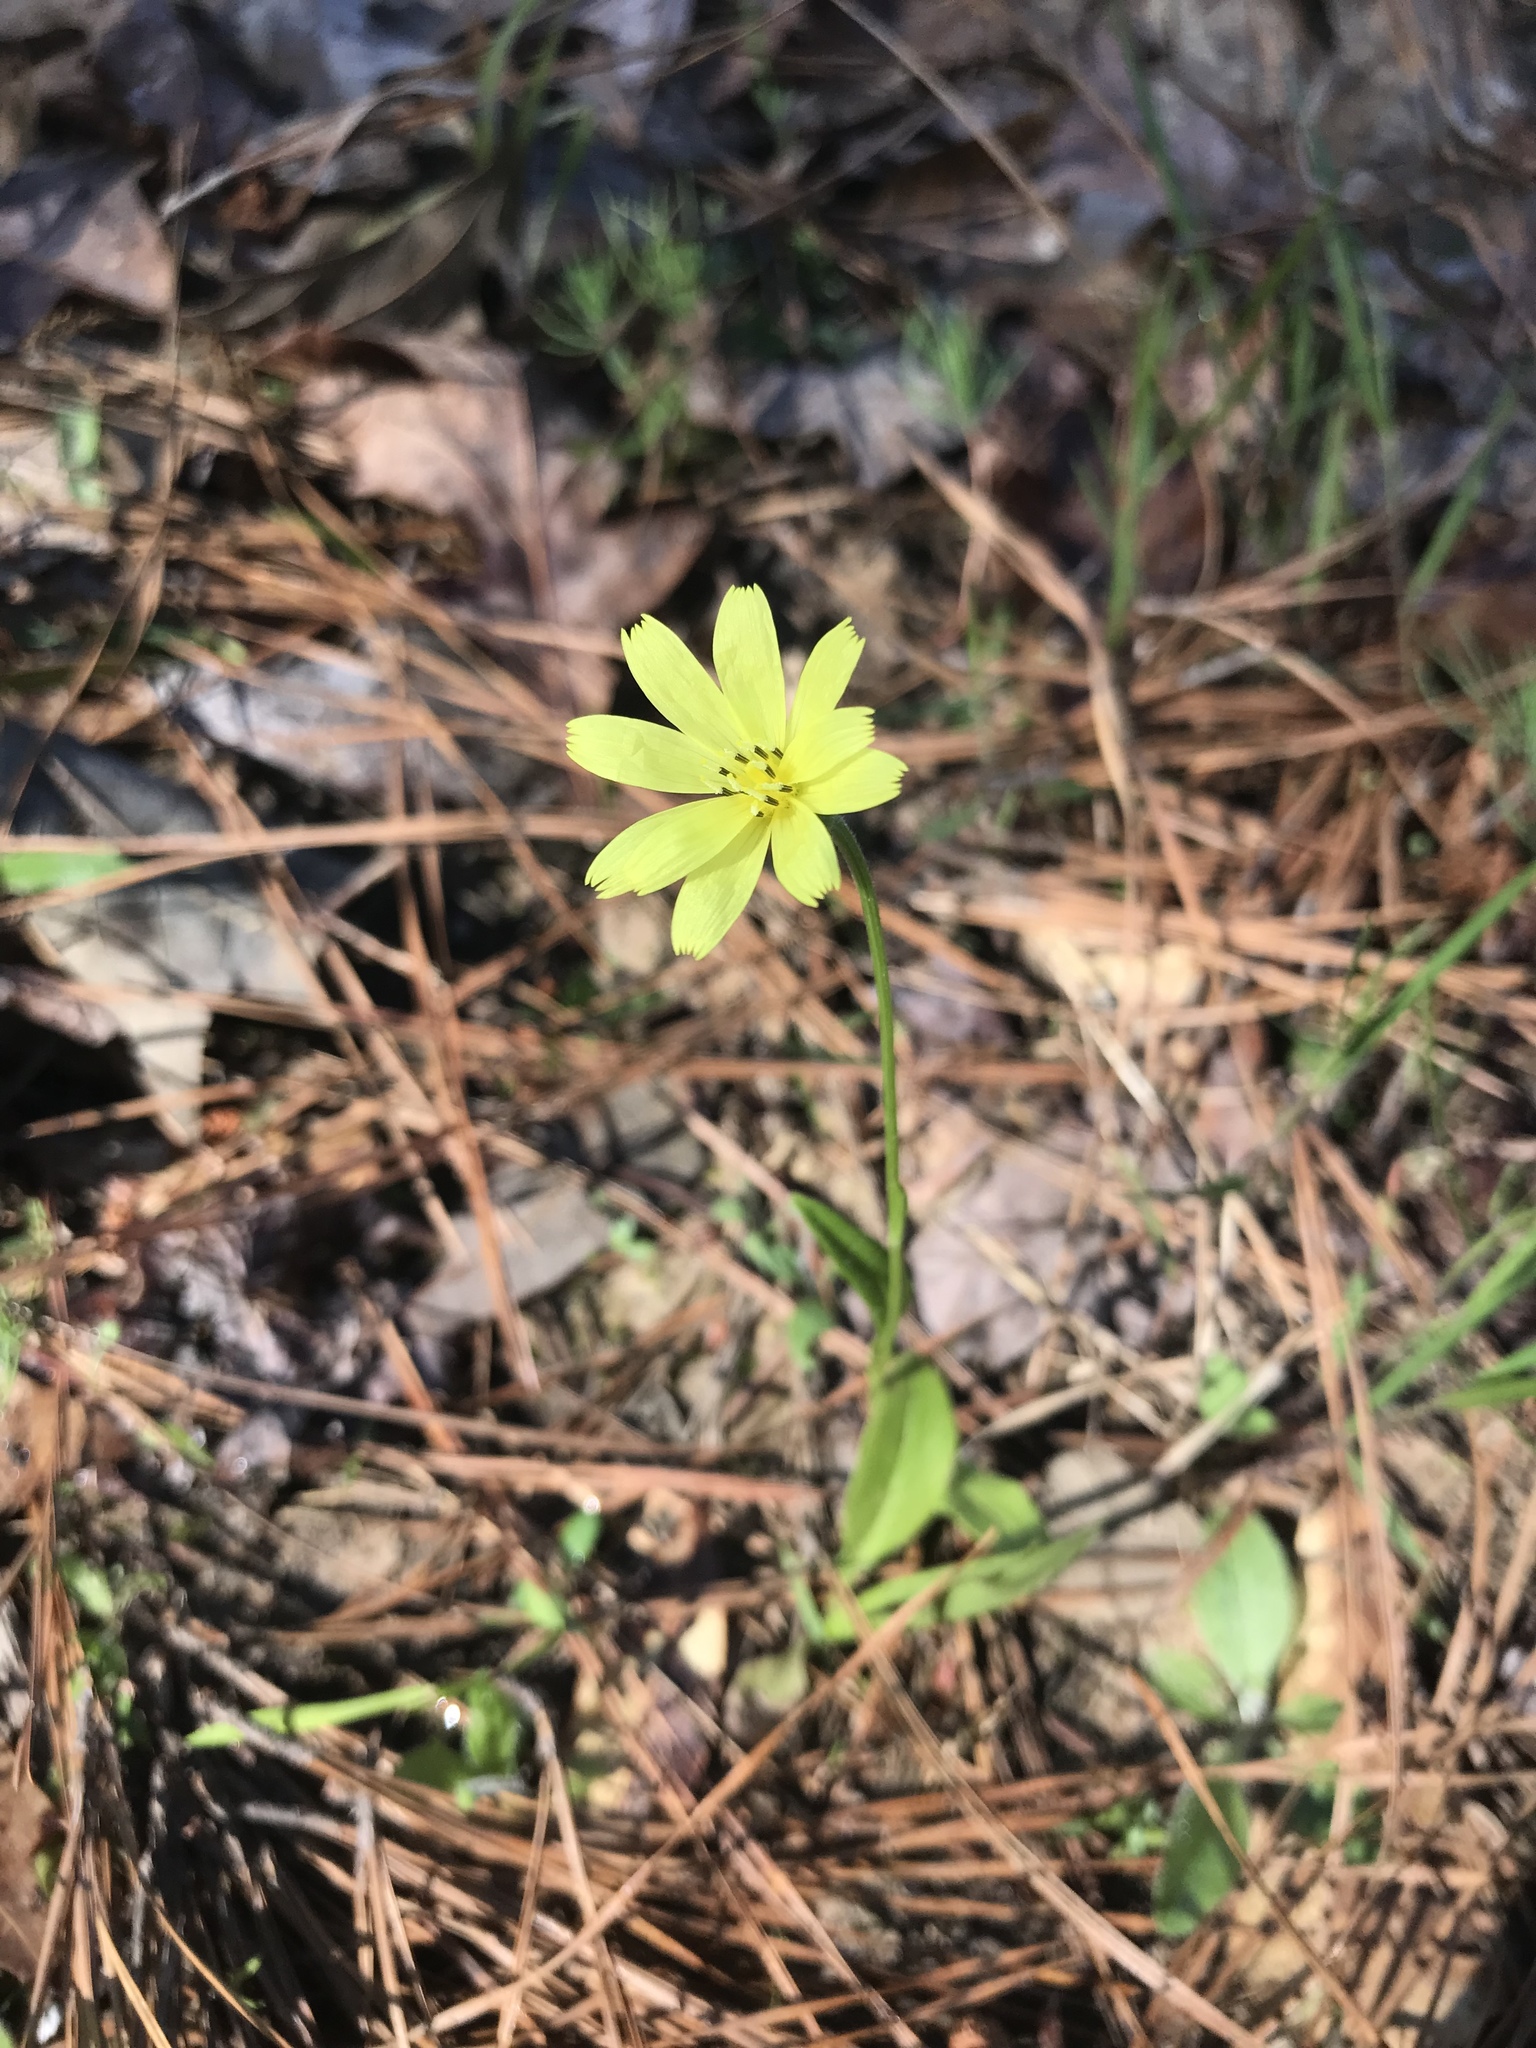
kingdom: Plantae
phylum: Tracheophyta
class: Magnoliopsida
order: Asterales
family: Asteraceae
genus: Pyrrhopappus
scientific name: Pyrrhopappus carolinianus
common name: Carolina desert-chicory
